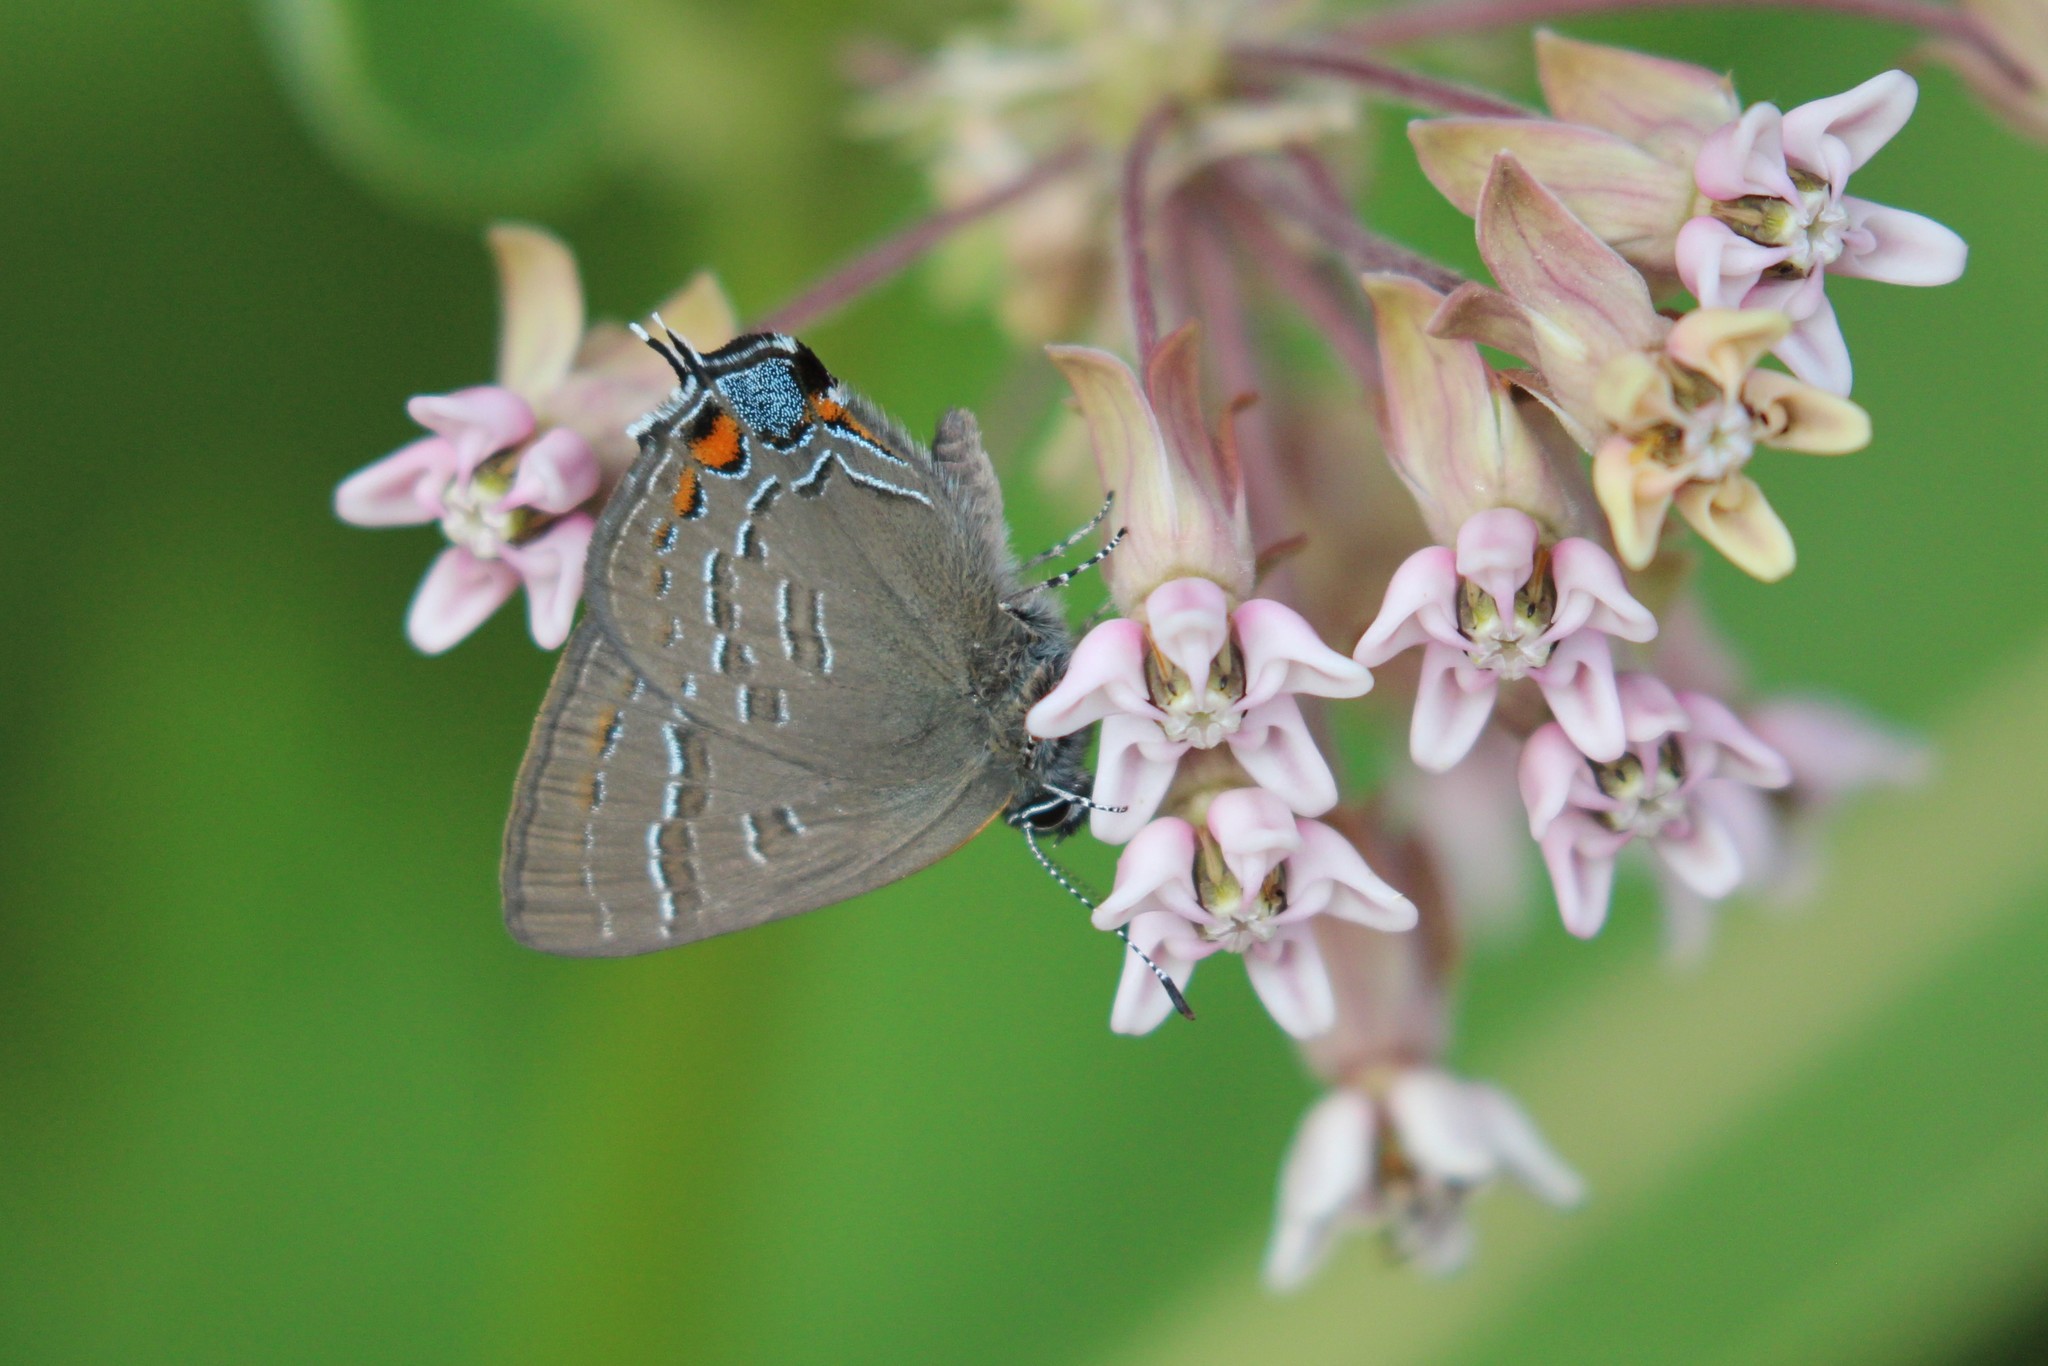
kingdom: Animalia
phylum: Arthropoda
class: Insecta
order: Lepidoptera
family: Lycaenidae
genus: Satyrium
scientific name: Satyrium calanus
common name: Banded hairstreak
